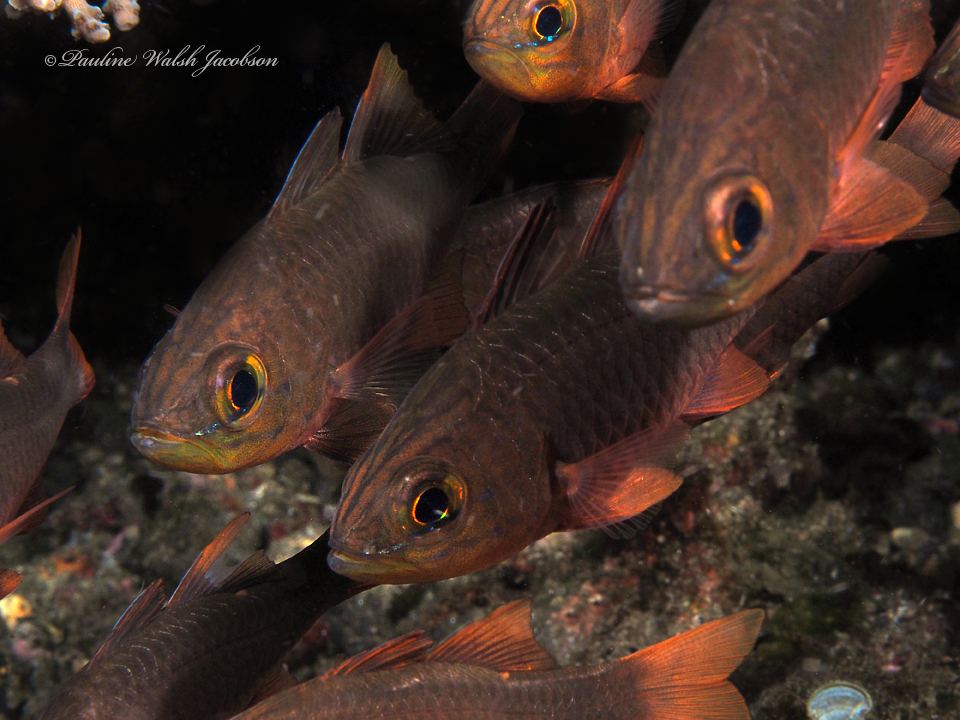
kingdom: Animalia
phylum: Chordata
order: Perciformes
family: Apogonidae
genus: Ostorhinchus
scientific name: Ostorhinchus monospilus
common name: Moluccan cardinalfish
